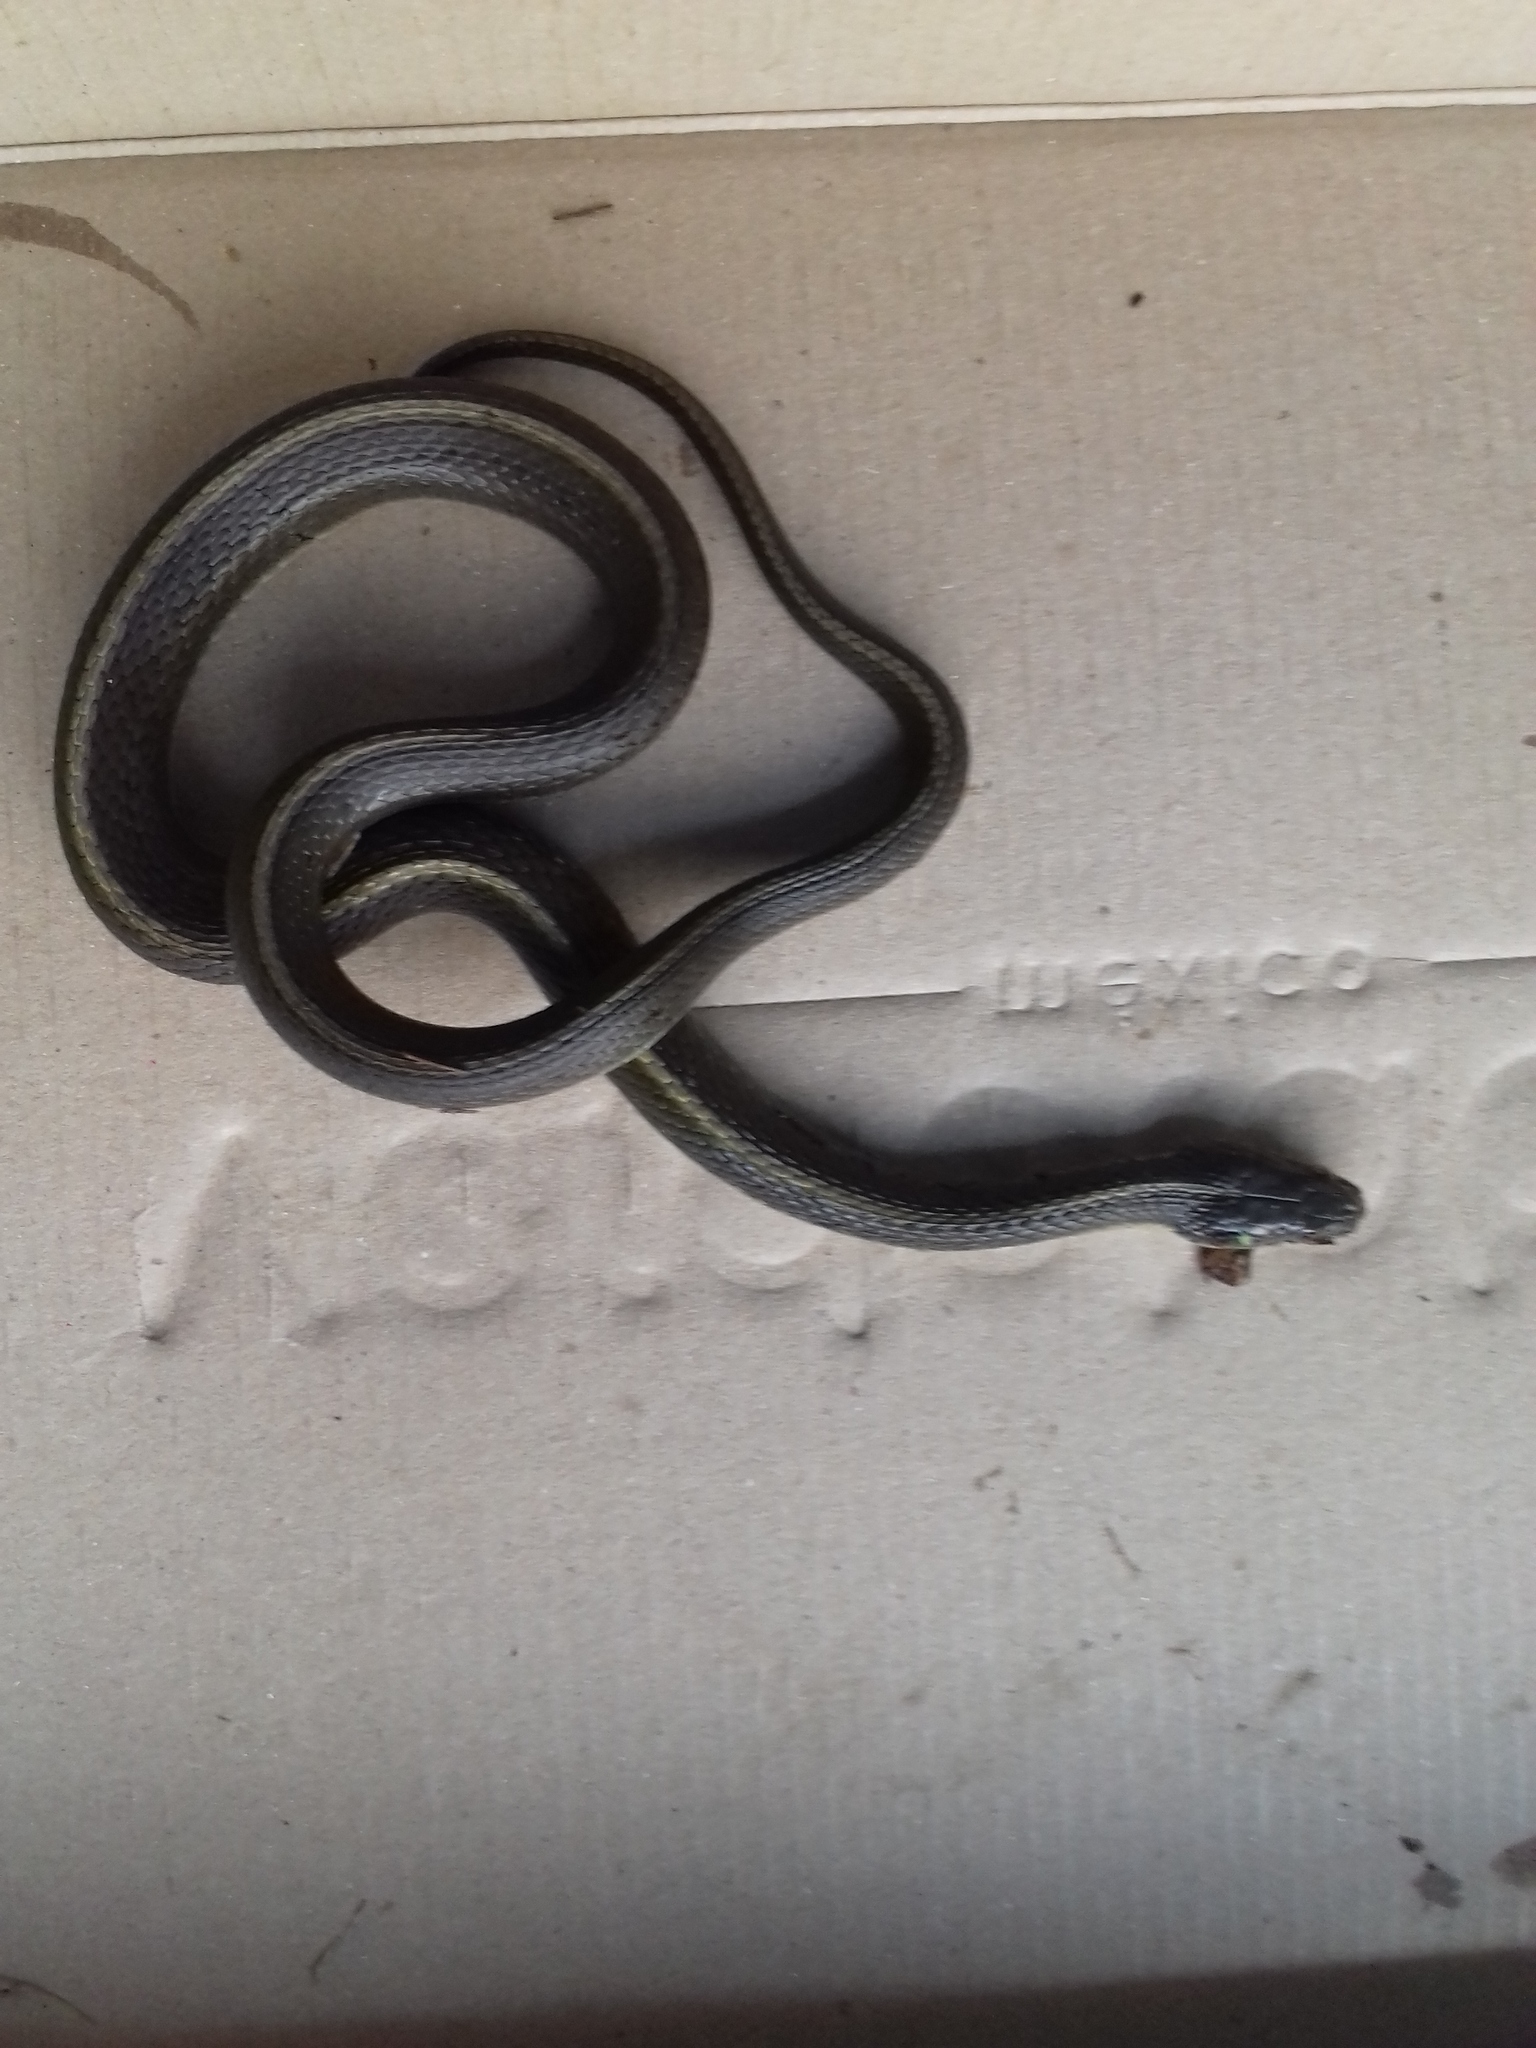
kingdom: Animalia
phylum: Chordata
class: Squamata
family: Colubridae
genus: Thamnophis
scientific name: Thamnophis melanogaster
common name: Blackbelly garter snake
